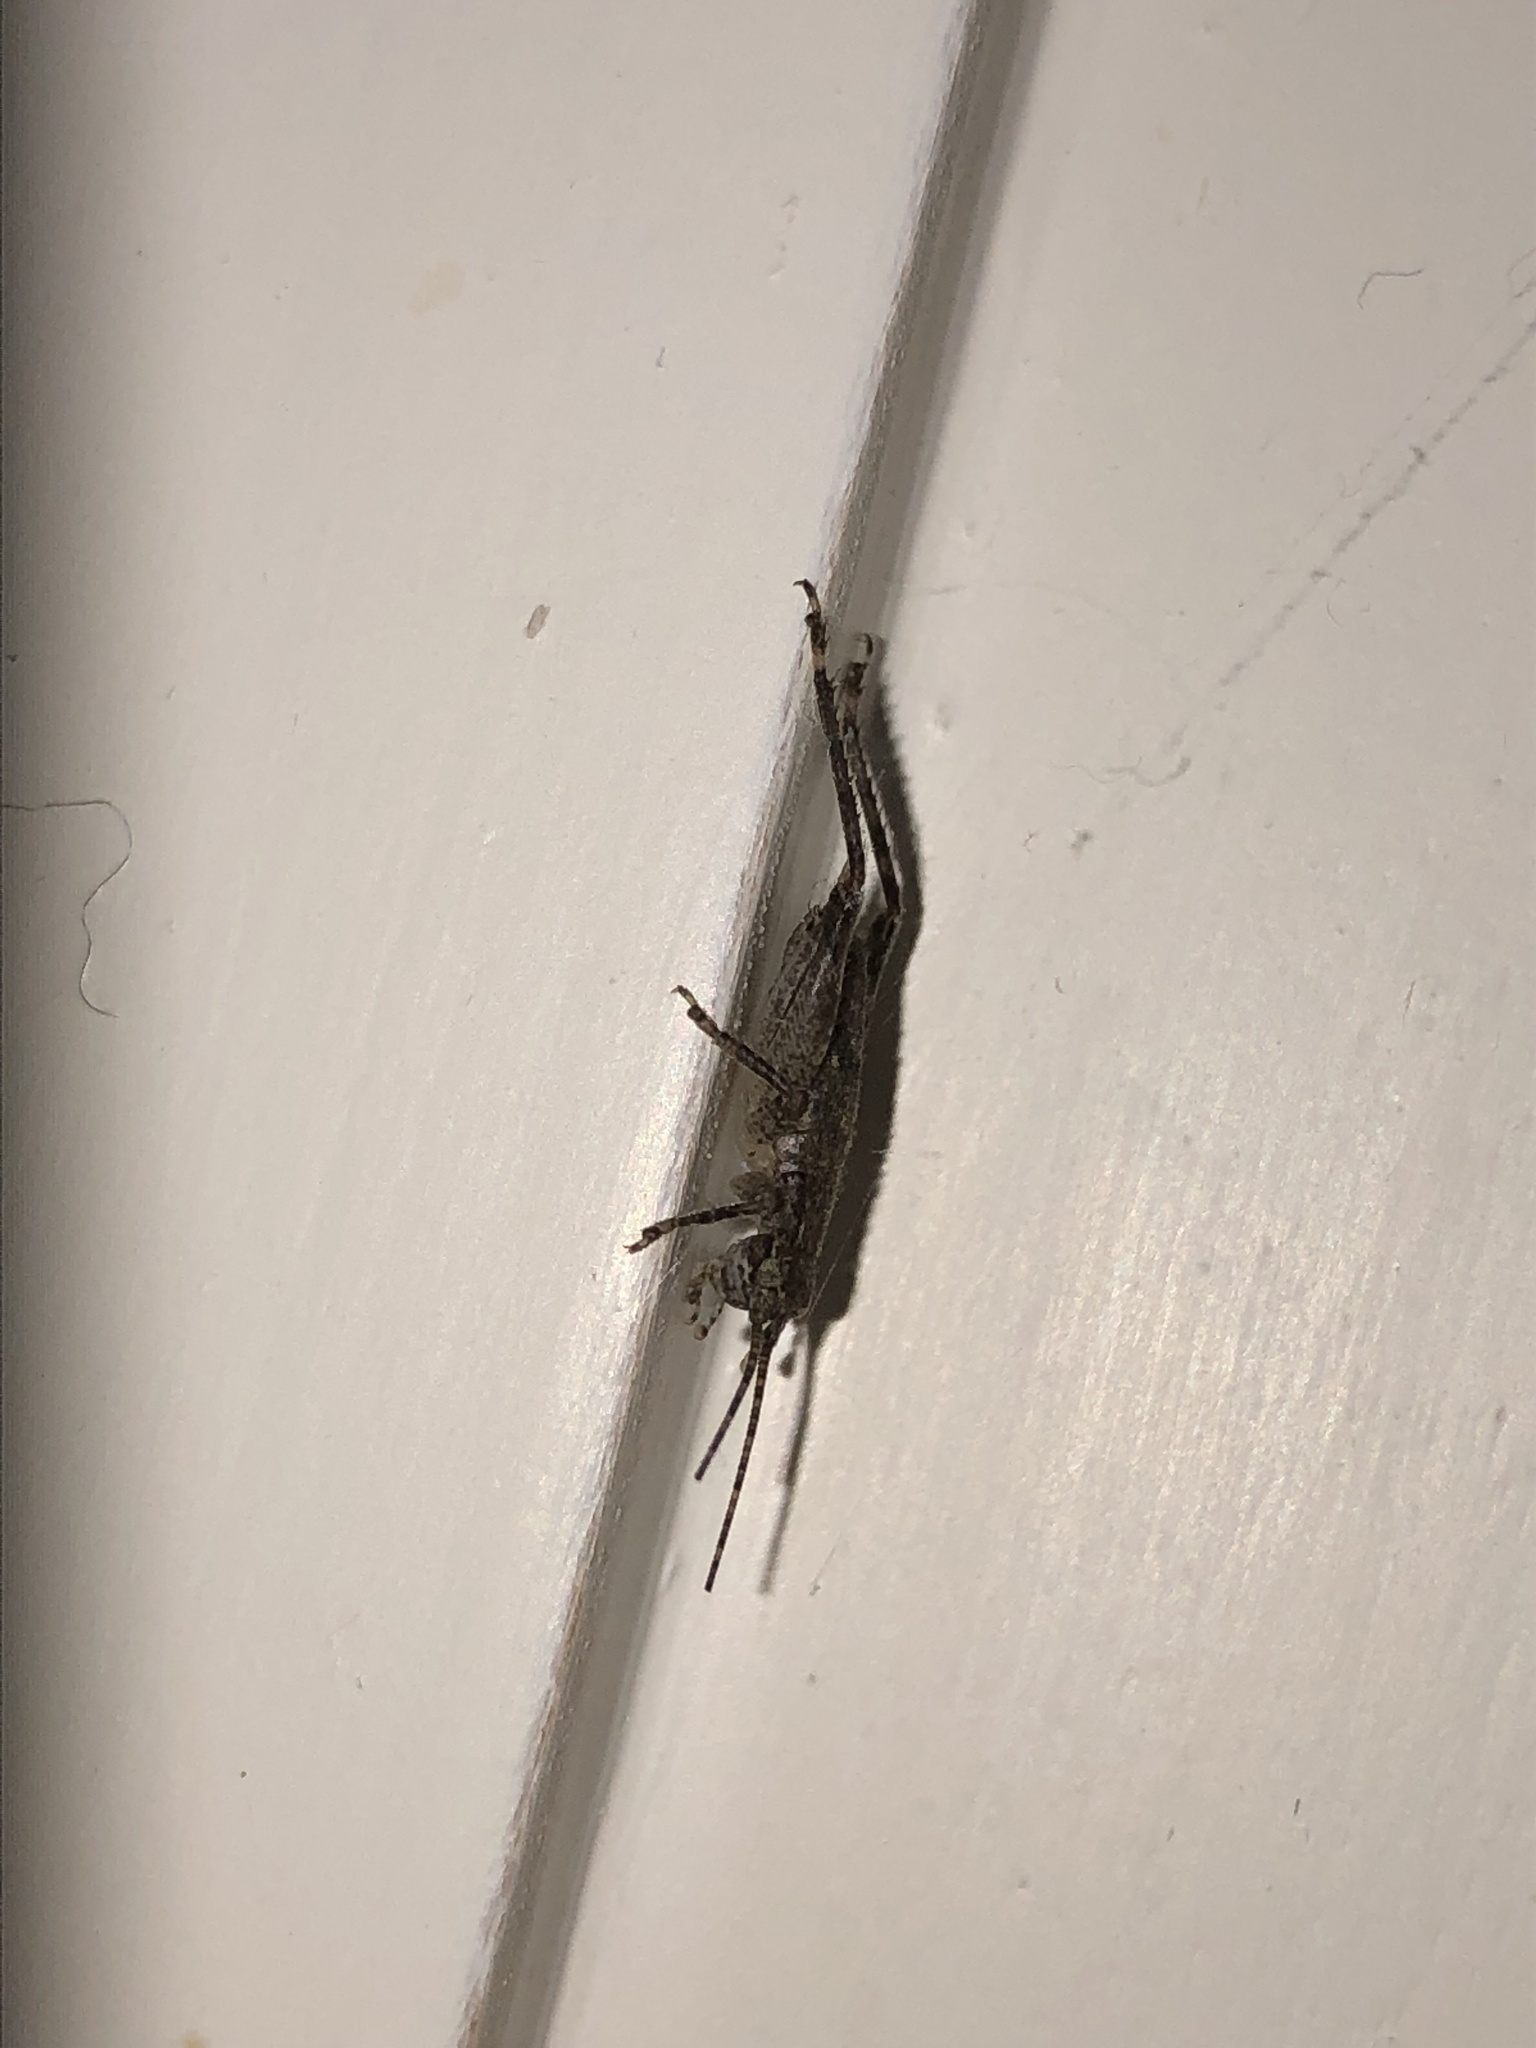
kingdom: Animalia
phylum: Arthropoda
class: Insecta
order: Orthoptera
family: Gryllidae
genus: Hapithus
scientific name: Hapithus saltator
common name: Jumping bush cricket
